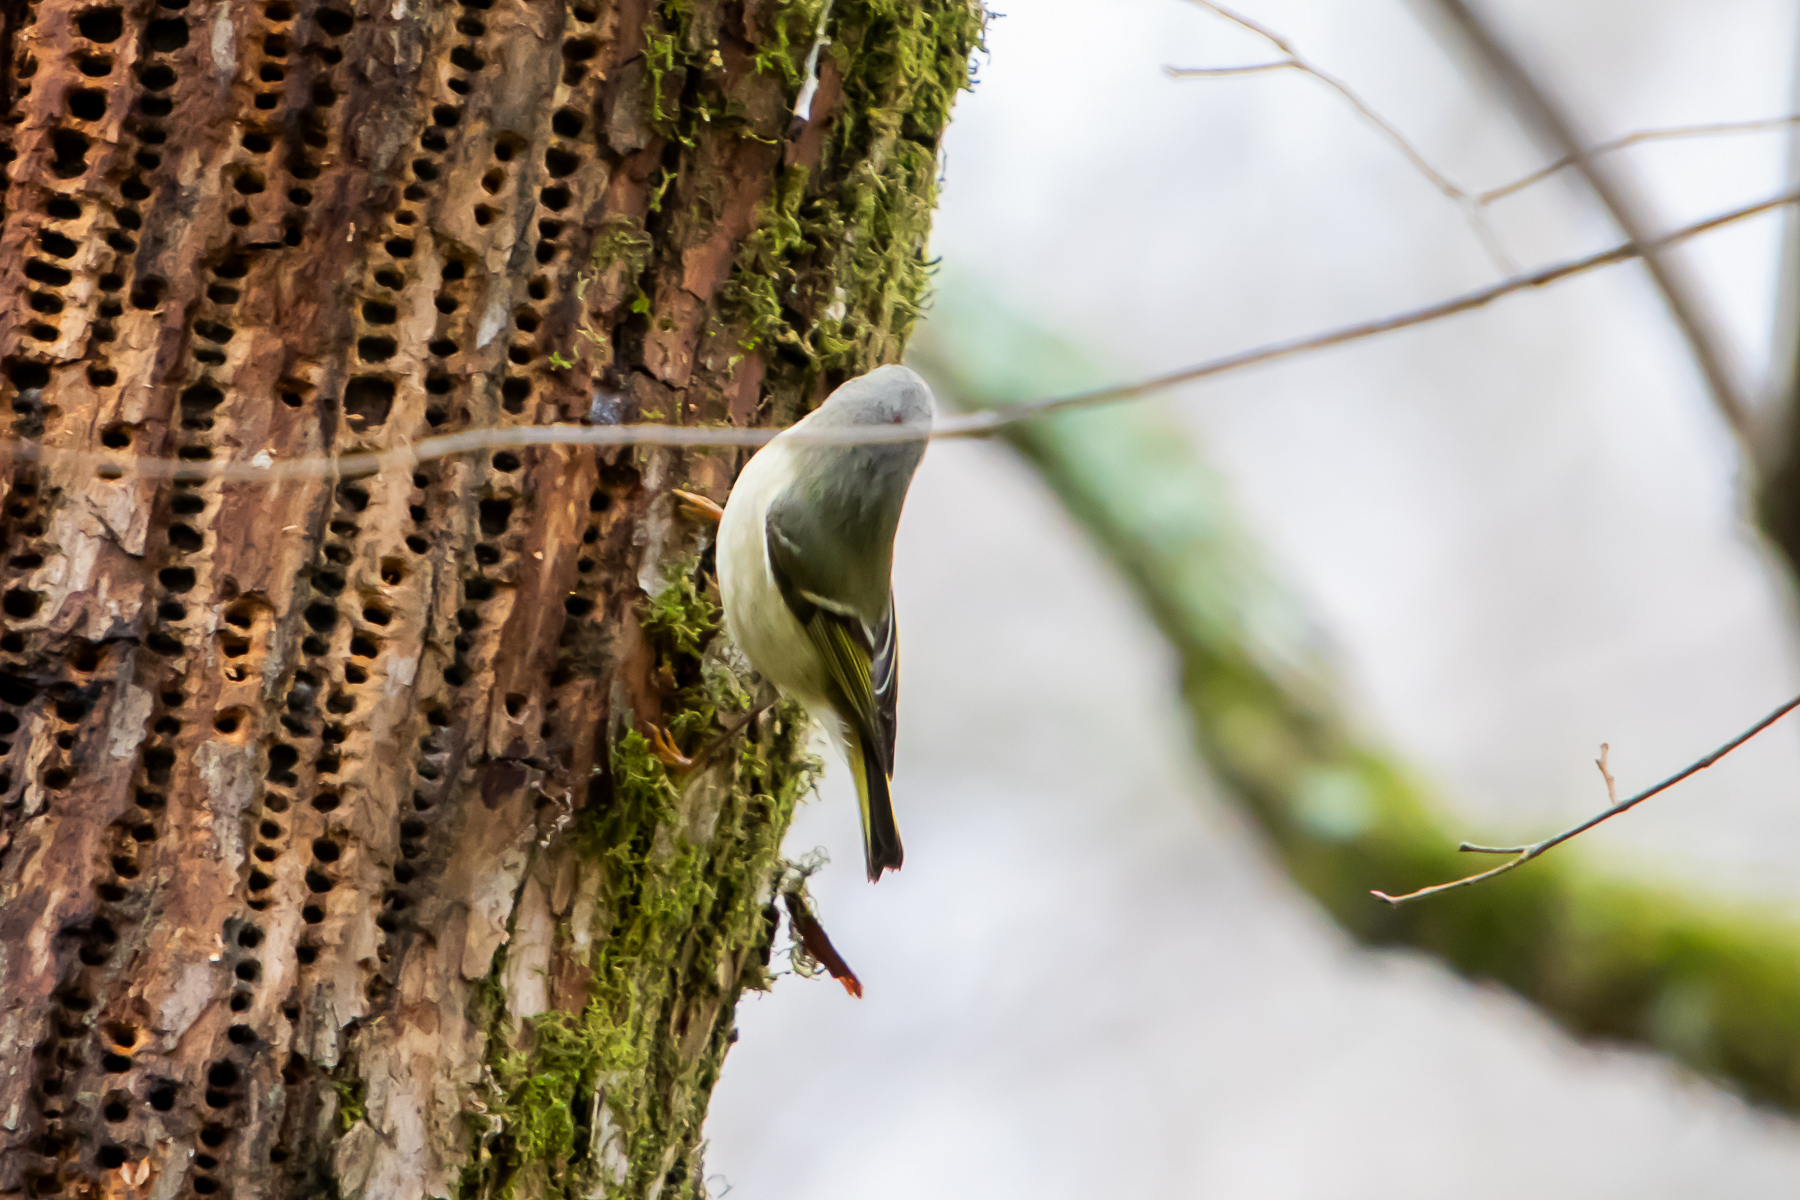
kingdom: Animalia
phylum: Chordata
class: Aves
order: Passeriformes
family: Regulidae
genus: Regulus
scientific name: Regulus calendula
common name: Ruby-crowned kinglet
